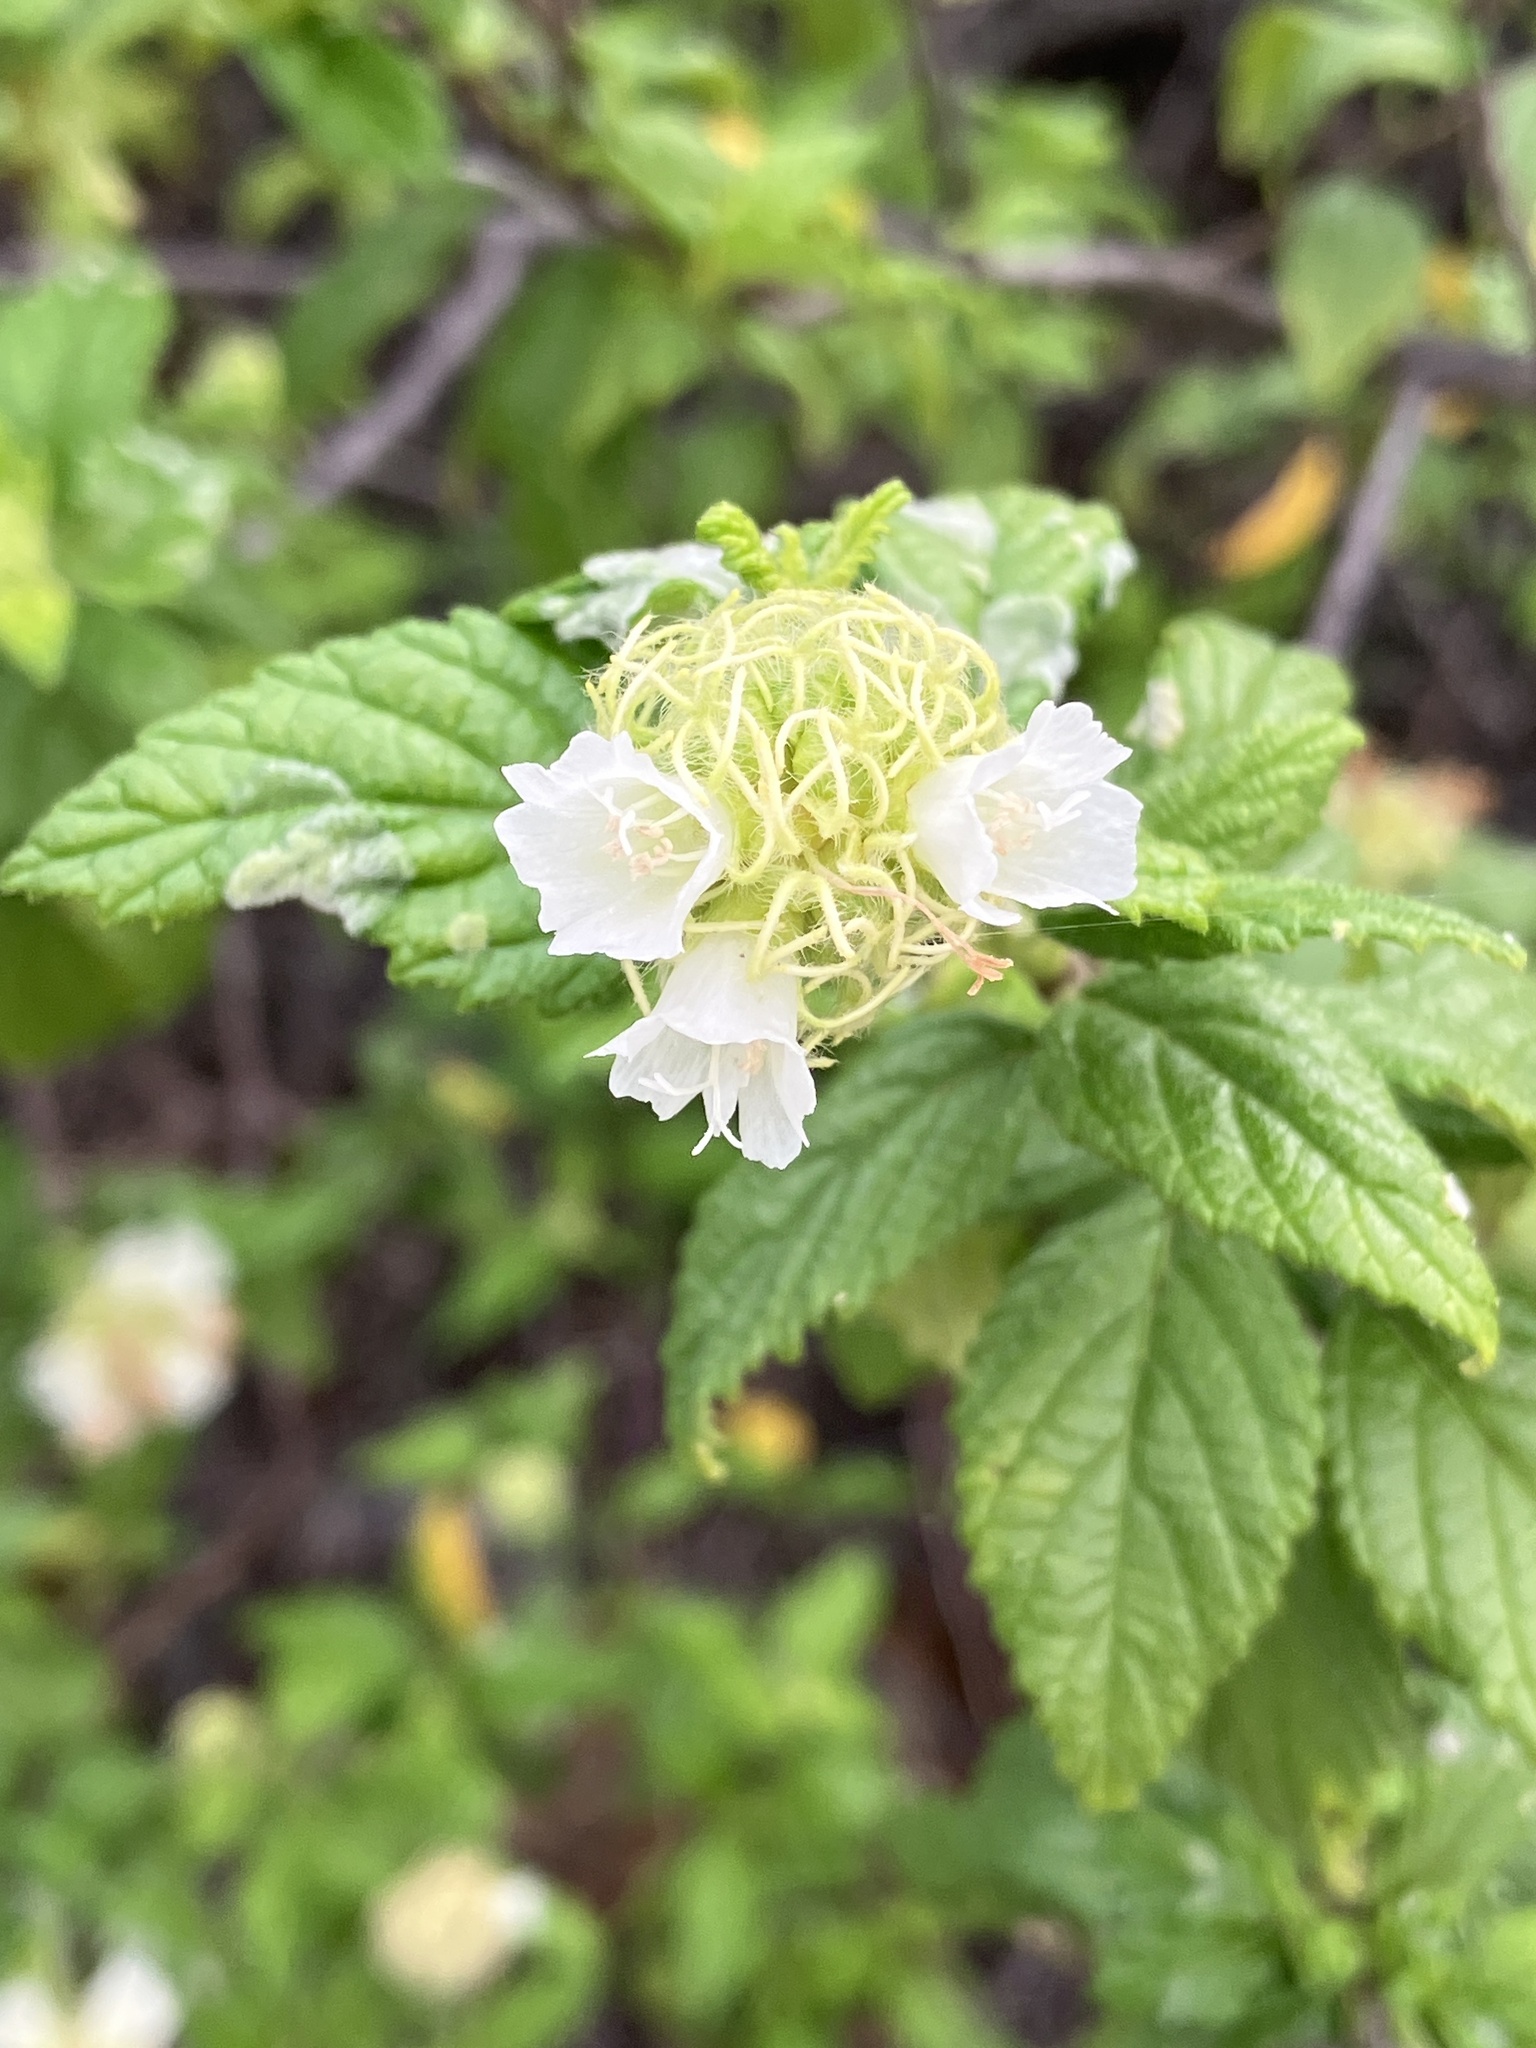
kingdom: Plantae
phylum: Tracheophyta
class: Magnoliopsida
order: Boraginales
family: Cordiaceae
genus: Varronia
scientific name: Varronia bullata
